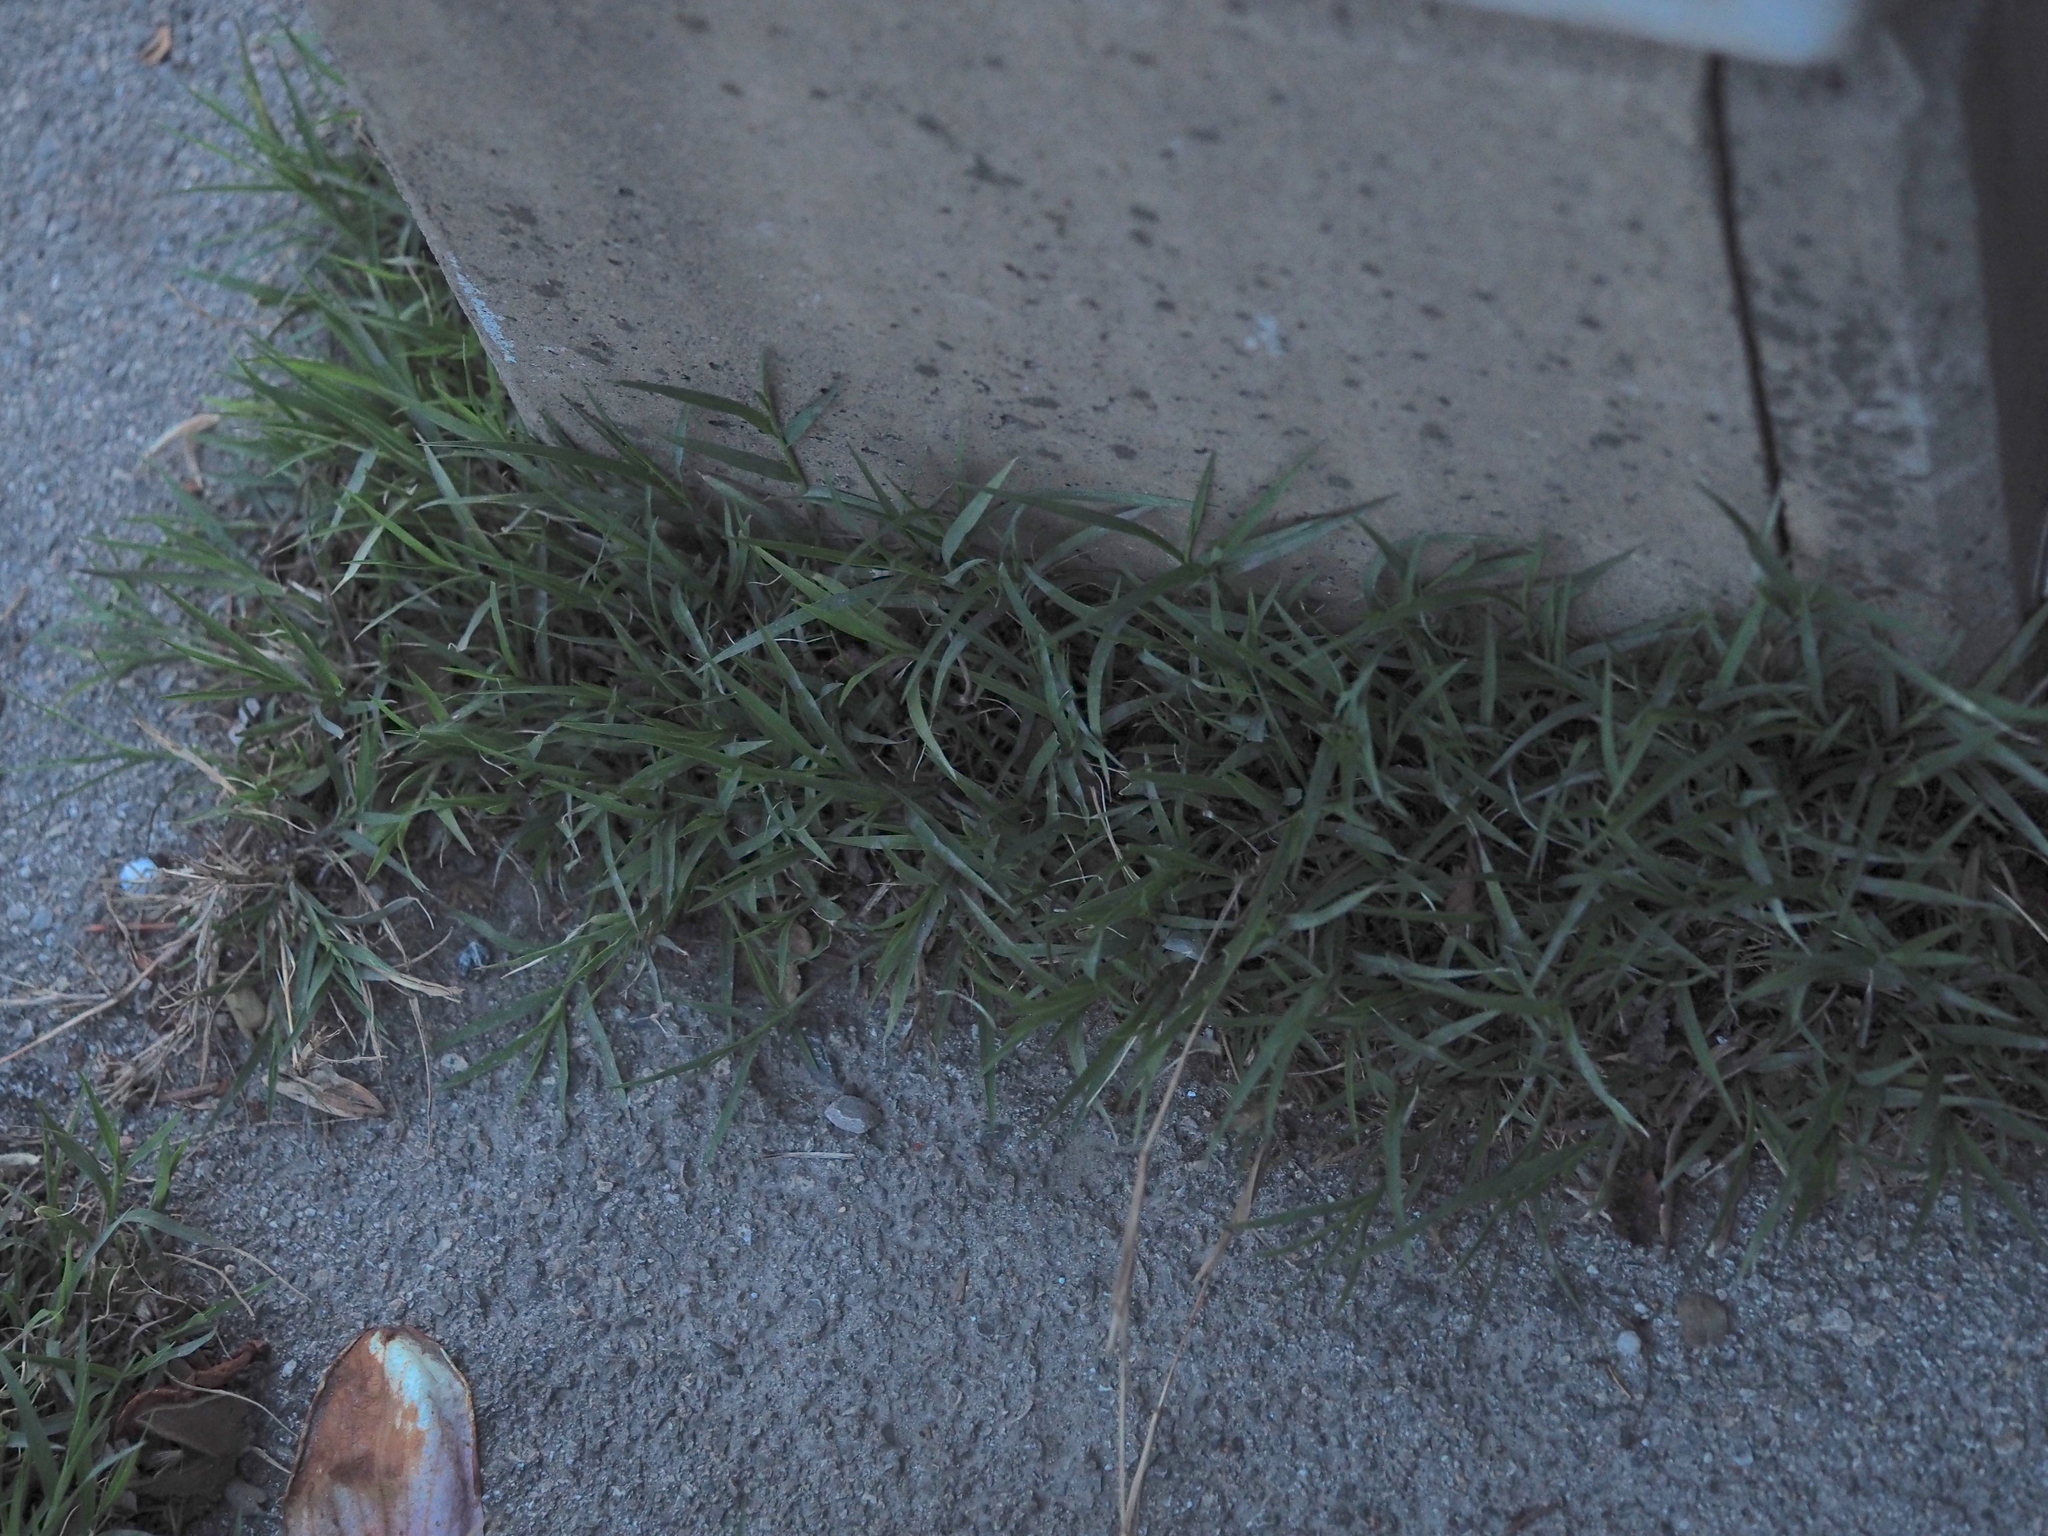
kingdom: Plantae
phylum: Tracheophyta
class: Liliopsida
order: Poales
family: Poaceae
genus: Cynodon
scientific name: Cynodon dactylon
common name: Bermuda grass
